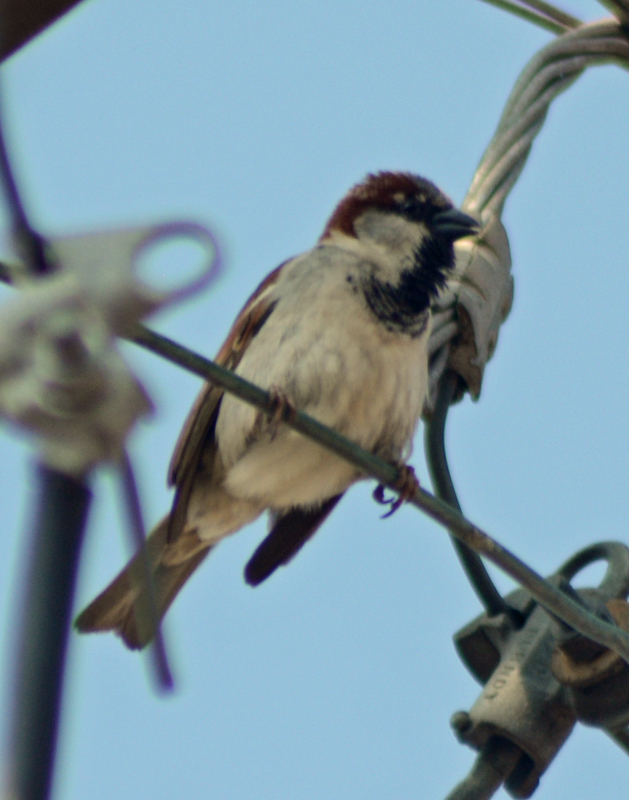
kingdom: Animalia
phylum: Chordata
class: Aves
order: Passeriformes
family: Passeridae
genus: Passer
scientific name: Passer domesticus
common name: House sparrow
